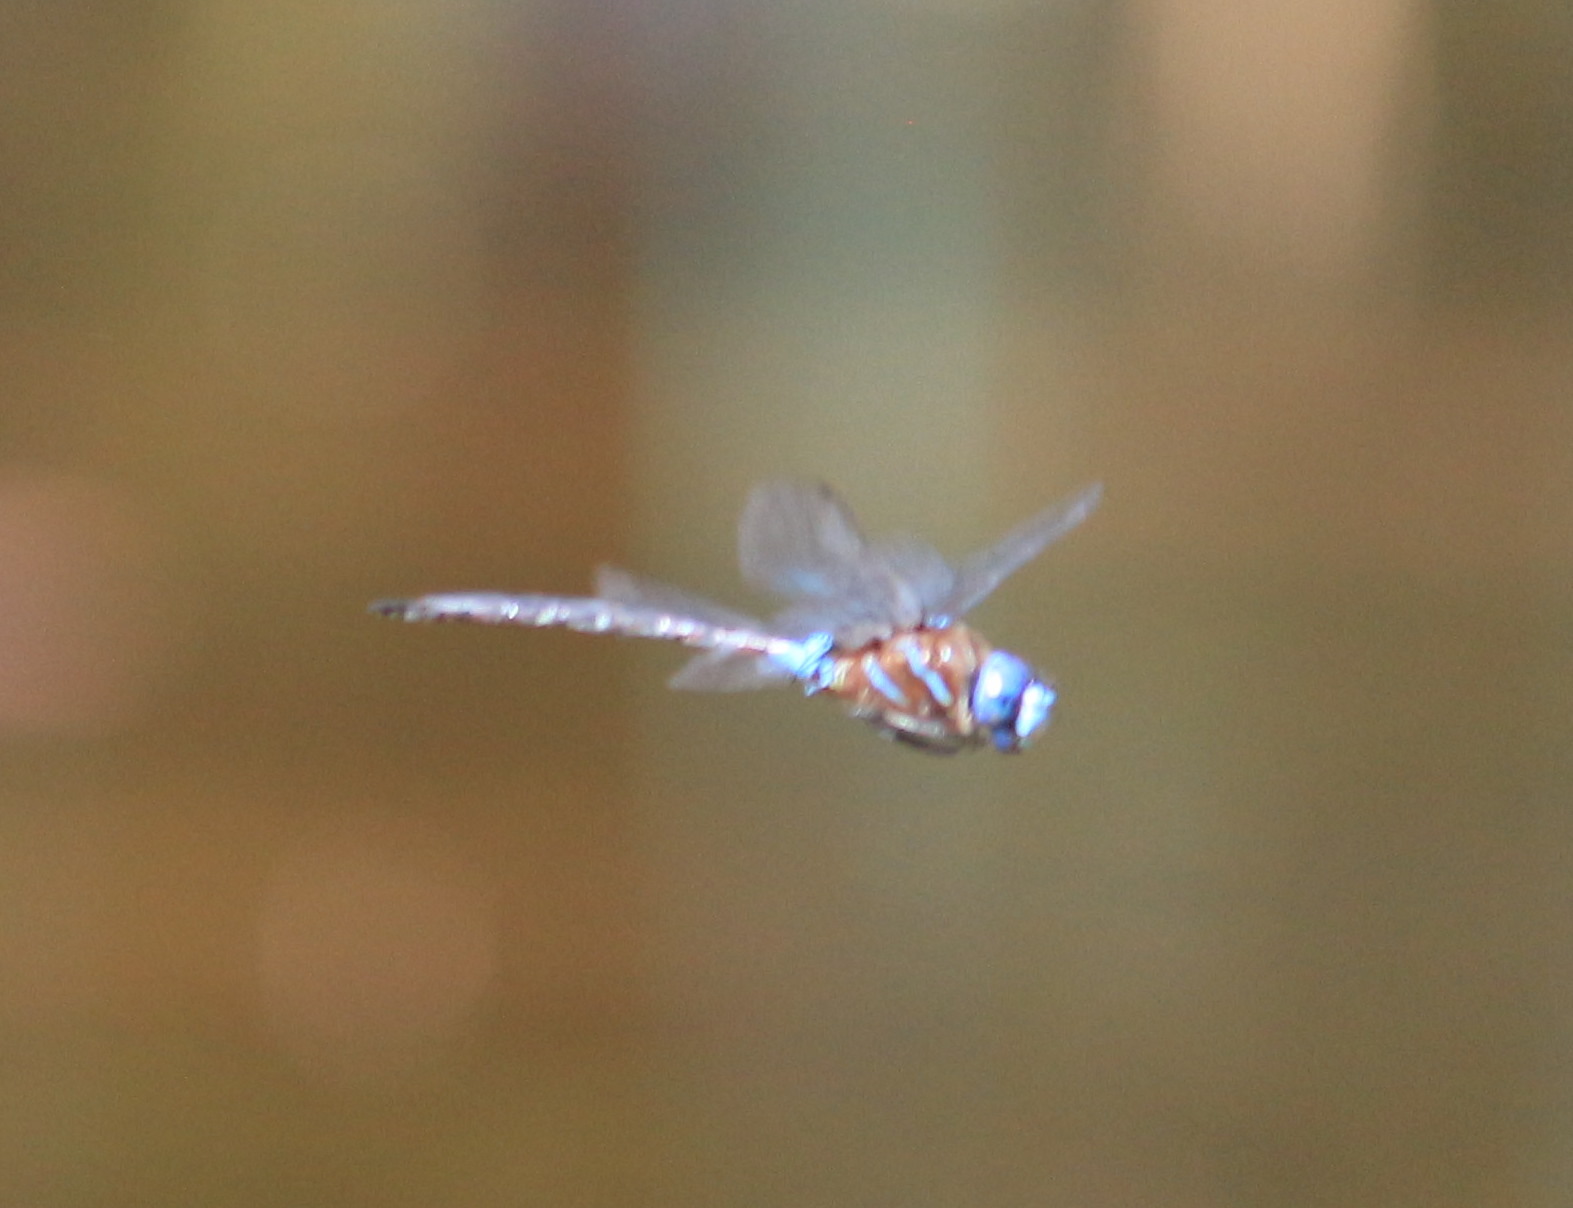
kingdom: Animalia
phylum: Arthropoda
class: Insecta
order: Odonata
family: Aeshnidae
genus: Rhionaeschna
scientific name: Rhionaeschna jalapensis
